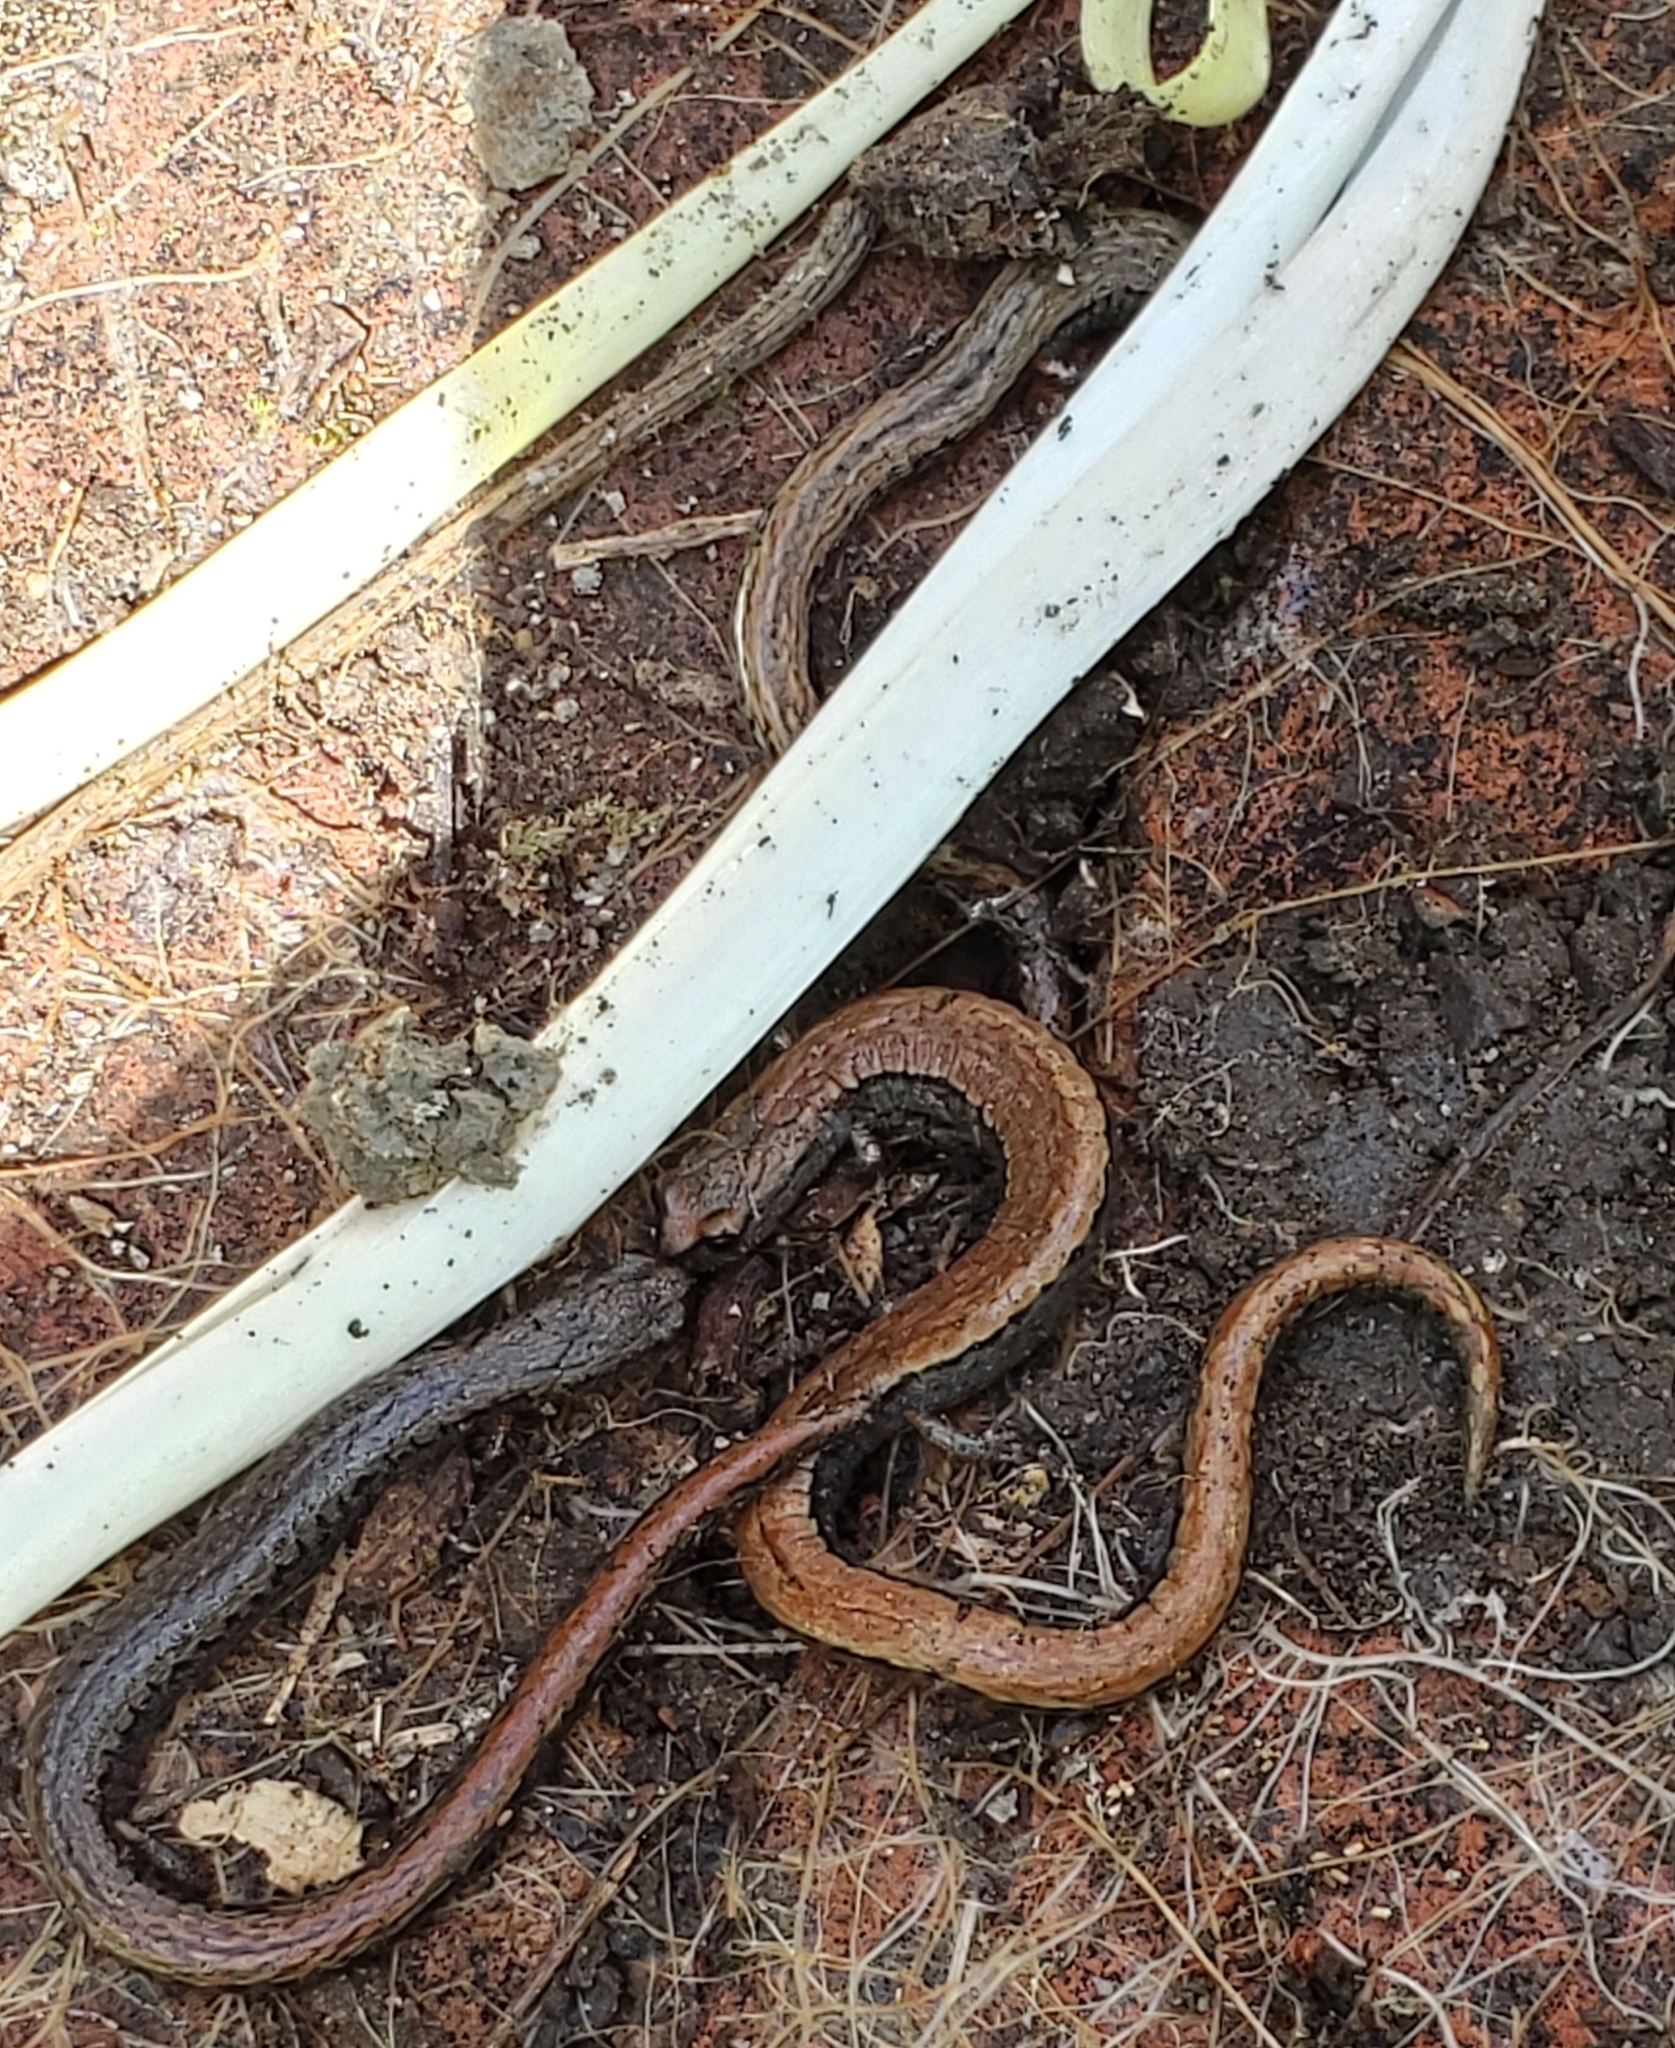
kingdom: Animalia
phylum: Chordata
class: Amphibia
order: Caudata
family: Plethodontidae
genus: Batrachoseps
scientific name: Batrachoseps attenuatus
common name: California slender salamander
